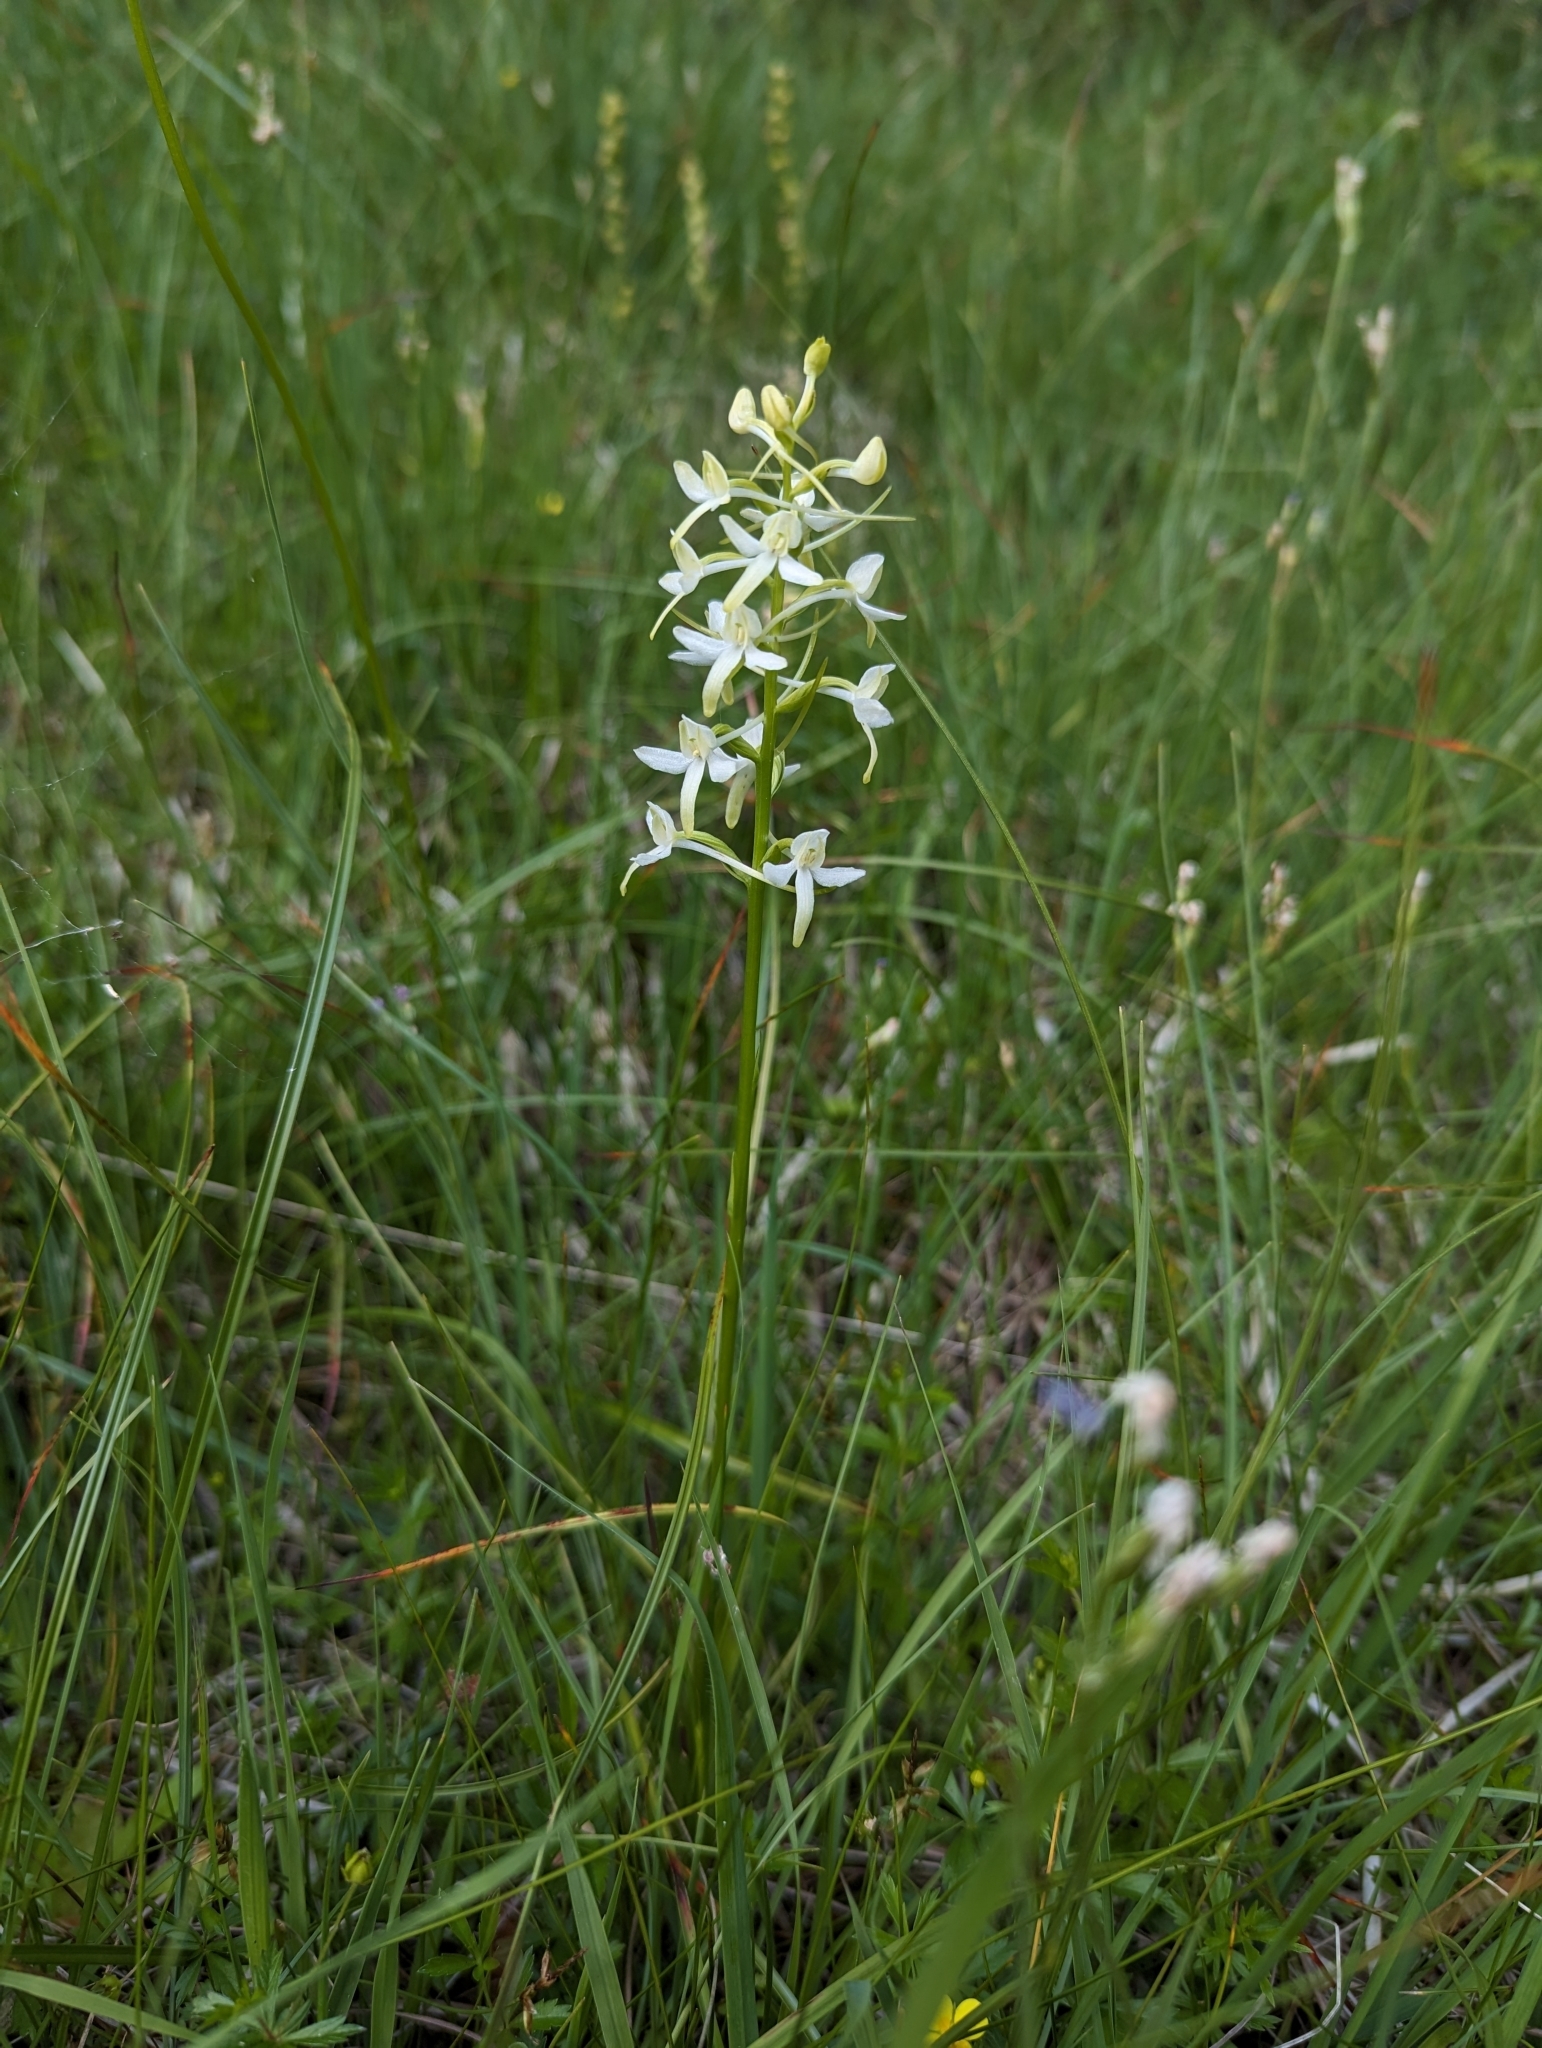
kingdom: Plantae
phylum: Tracheophyta
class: Liliopsida
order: Asparagales
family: Orchidaceae
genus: Platanthera
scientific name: Platanthera bifolia
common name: Lesser butterfly-orchid
